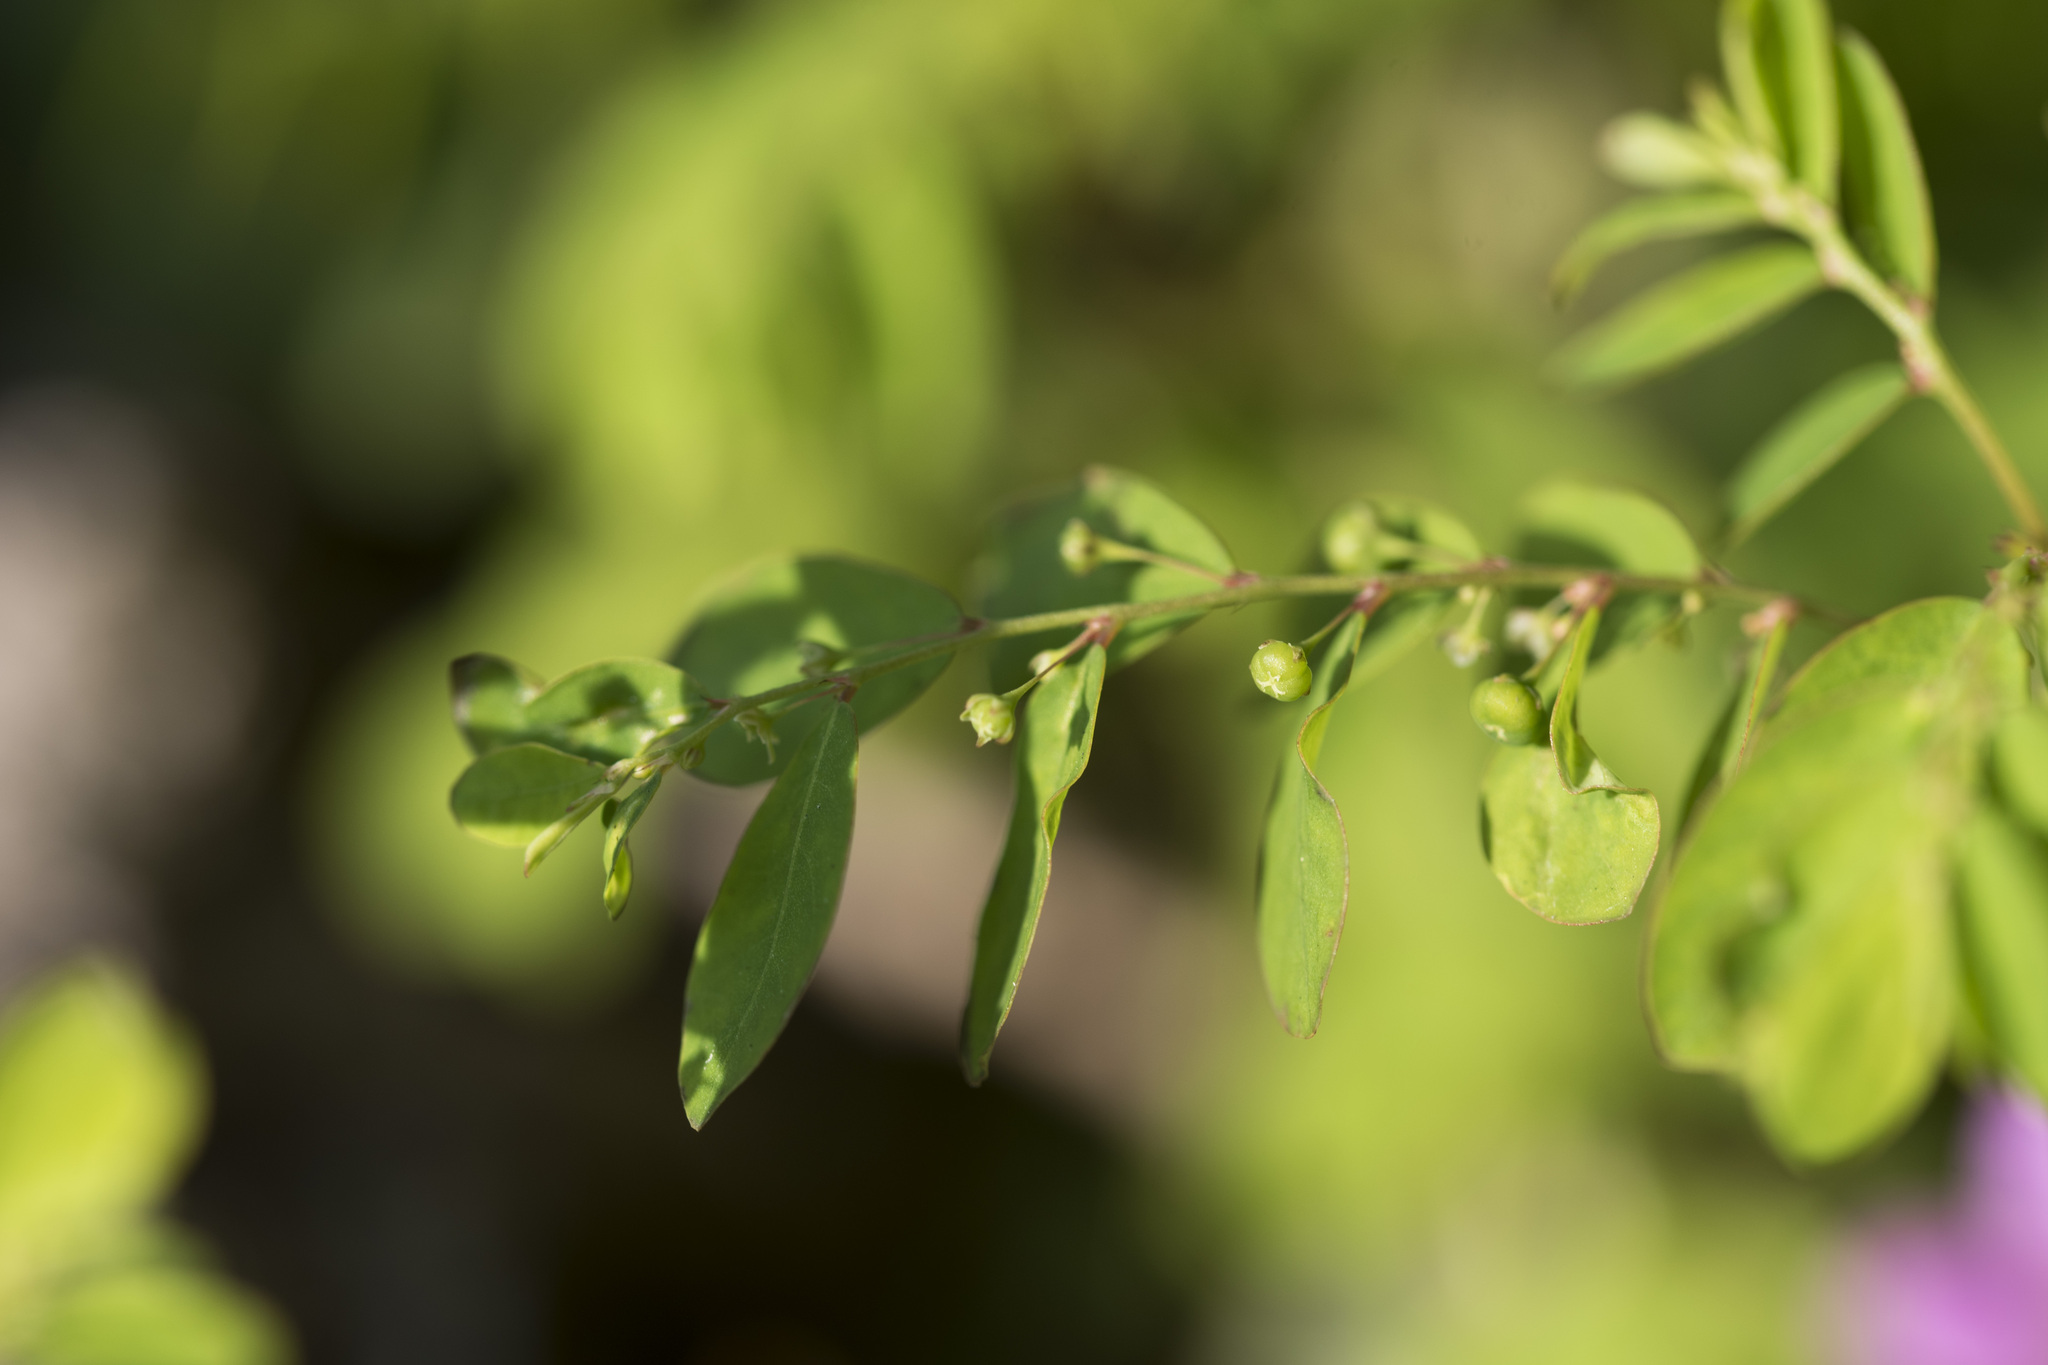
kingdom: Plantae
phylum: Tracheophyta
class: Magnoliopsida
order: Malpighiales
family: Phyllanthaceae
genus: Phyllanthus
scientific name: Phyllanthus tenellus
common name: Mascarene island leaf-flower
